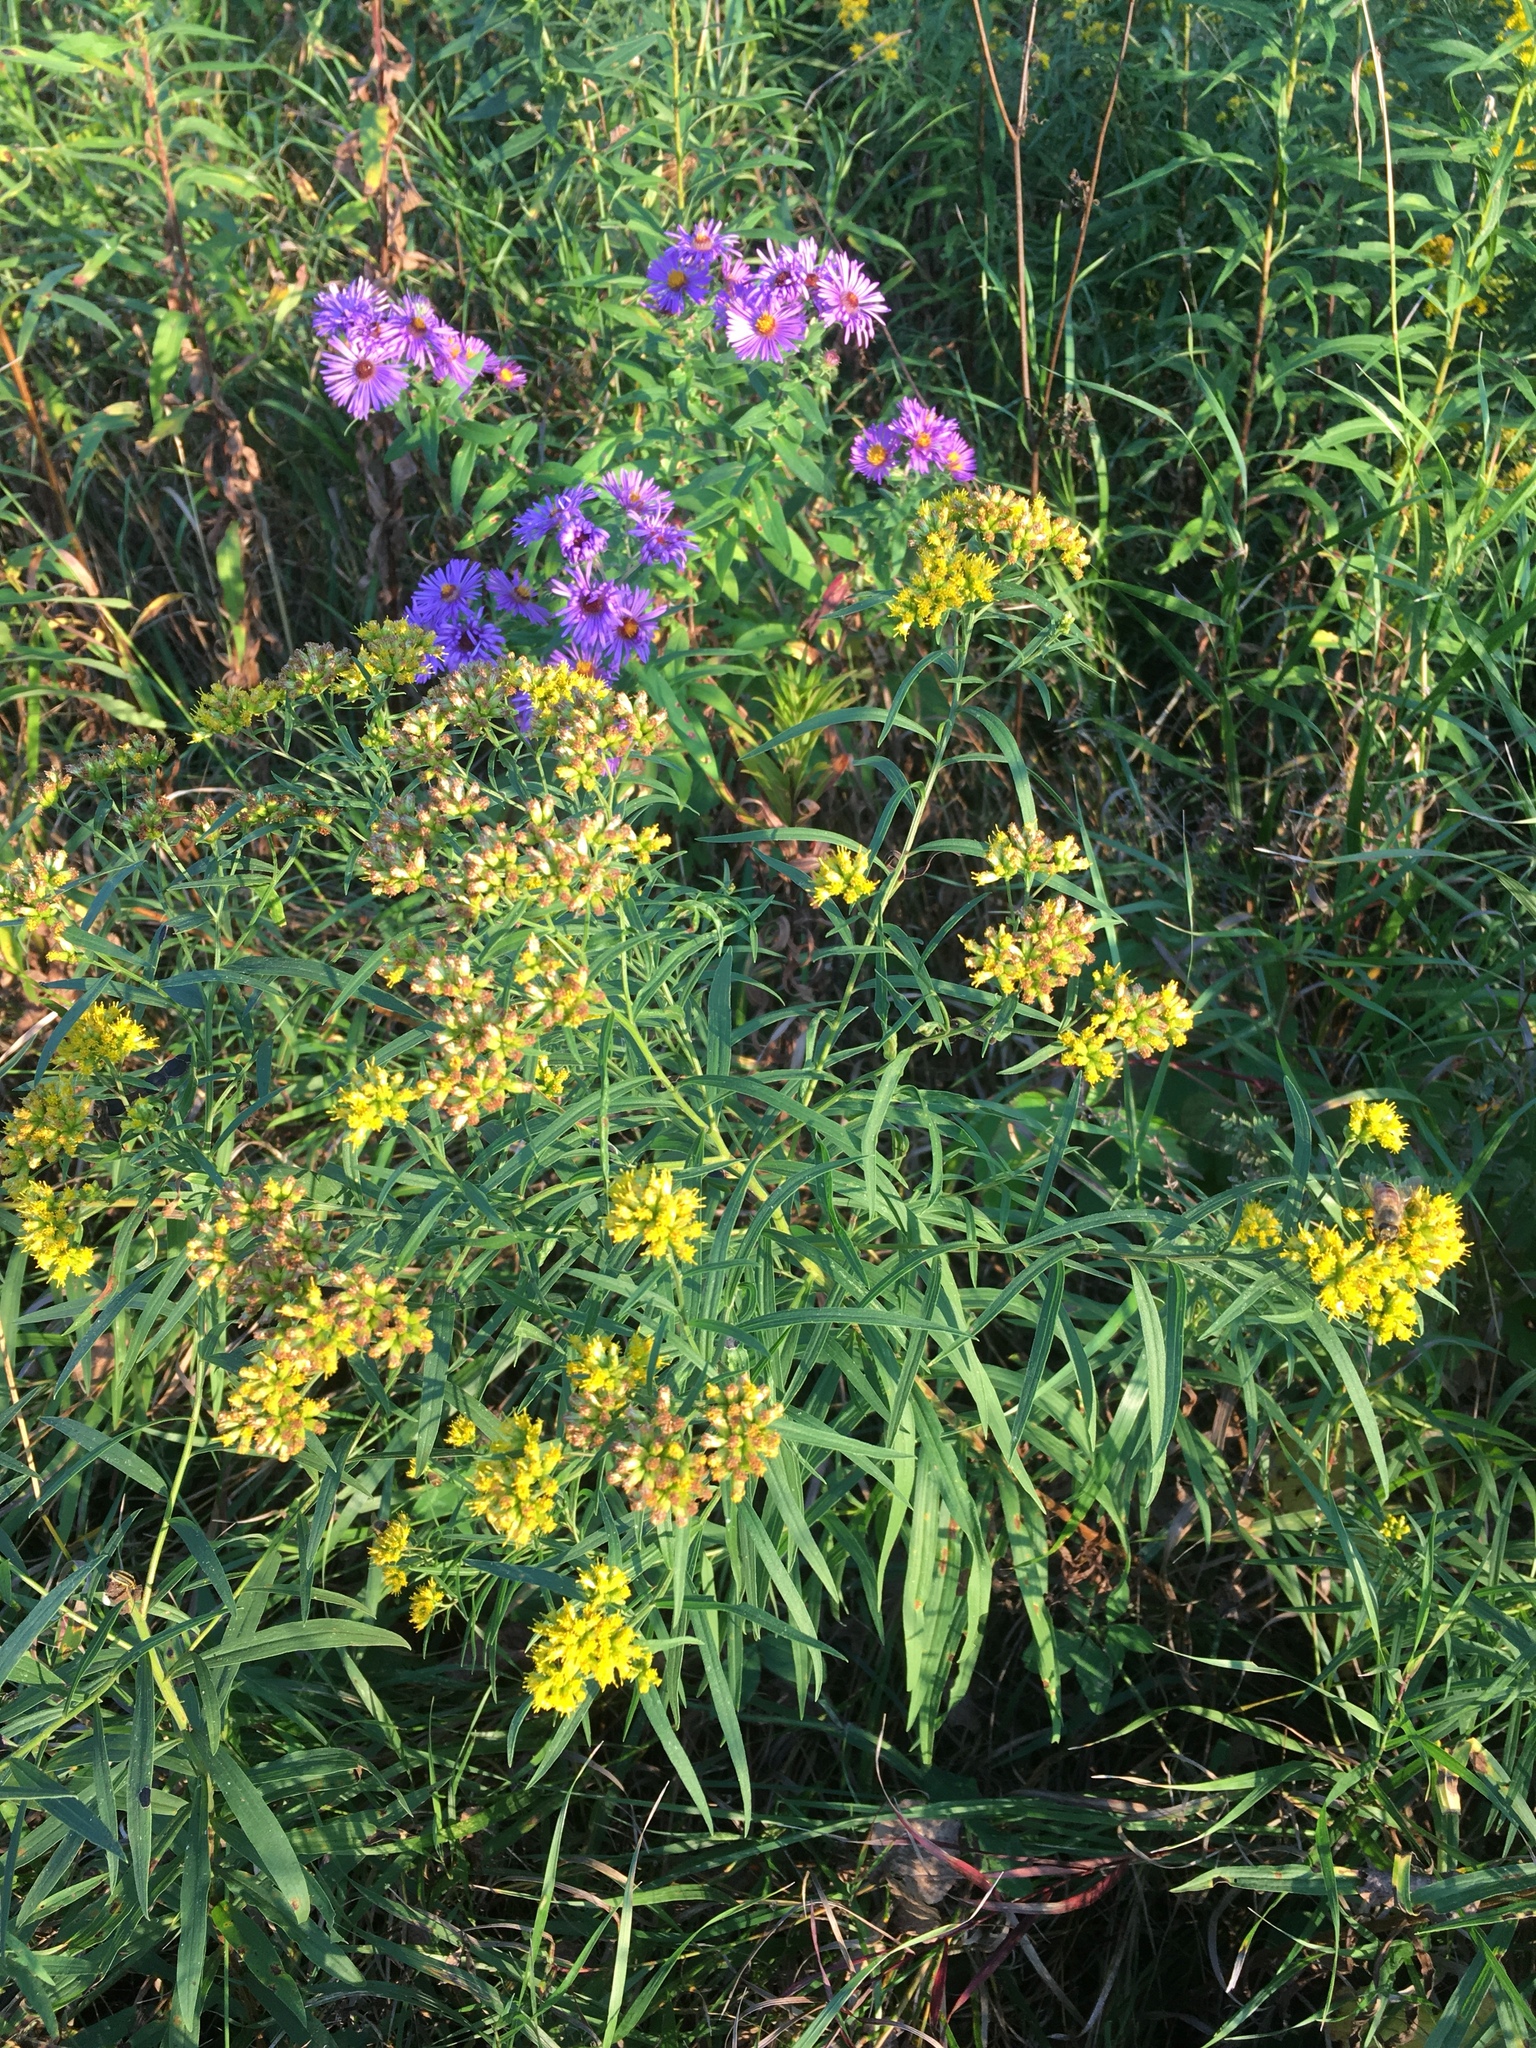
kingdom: Plantae
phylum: Tracheophyta
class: Magnoliopsida
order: Asterales
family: Asteraceae
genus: Euthamia
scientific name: Euthamia graminifolia
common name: Common goldentop
